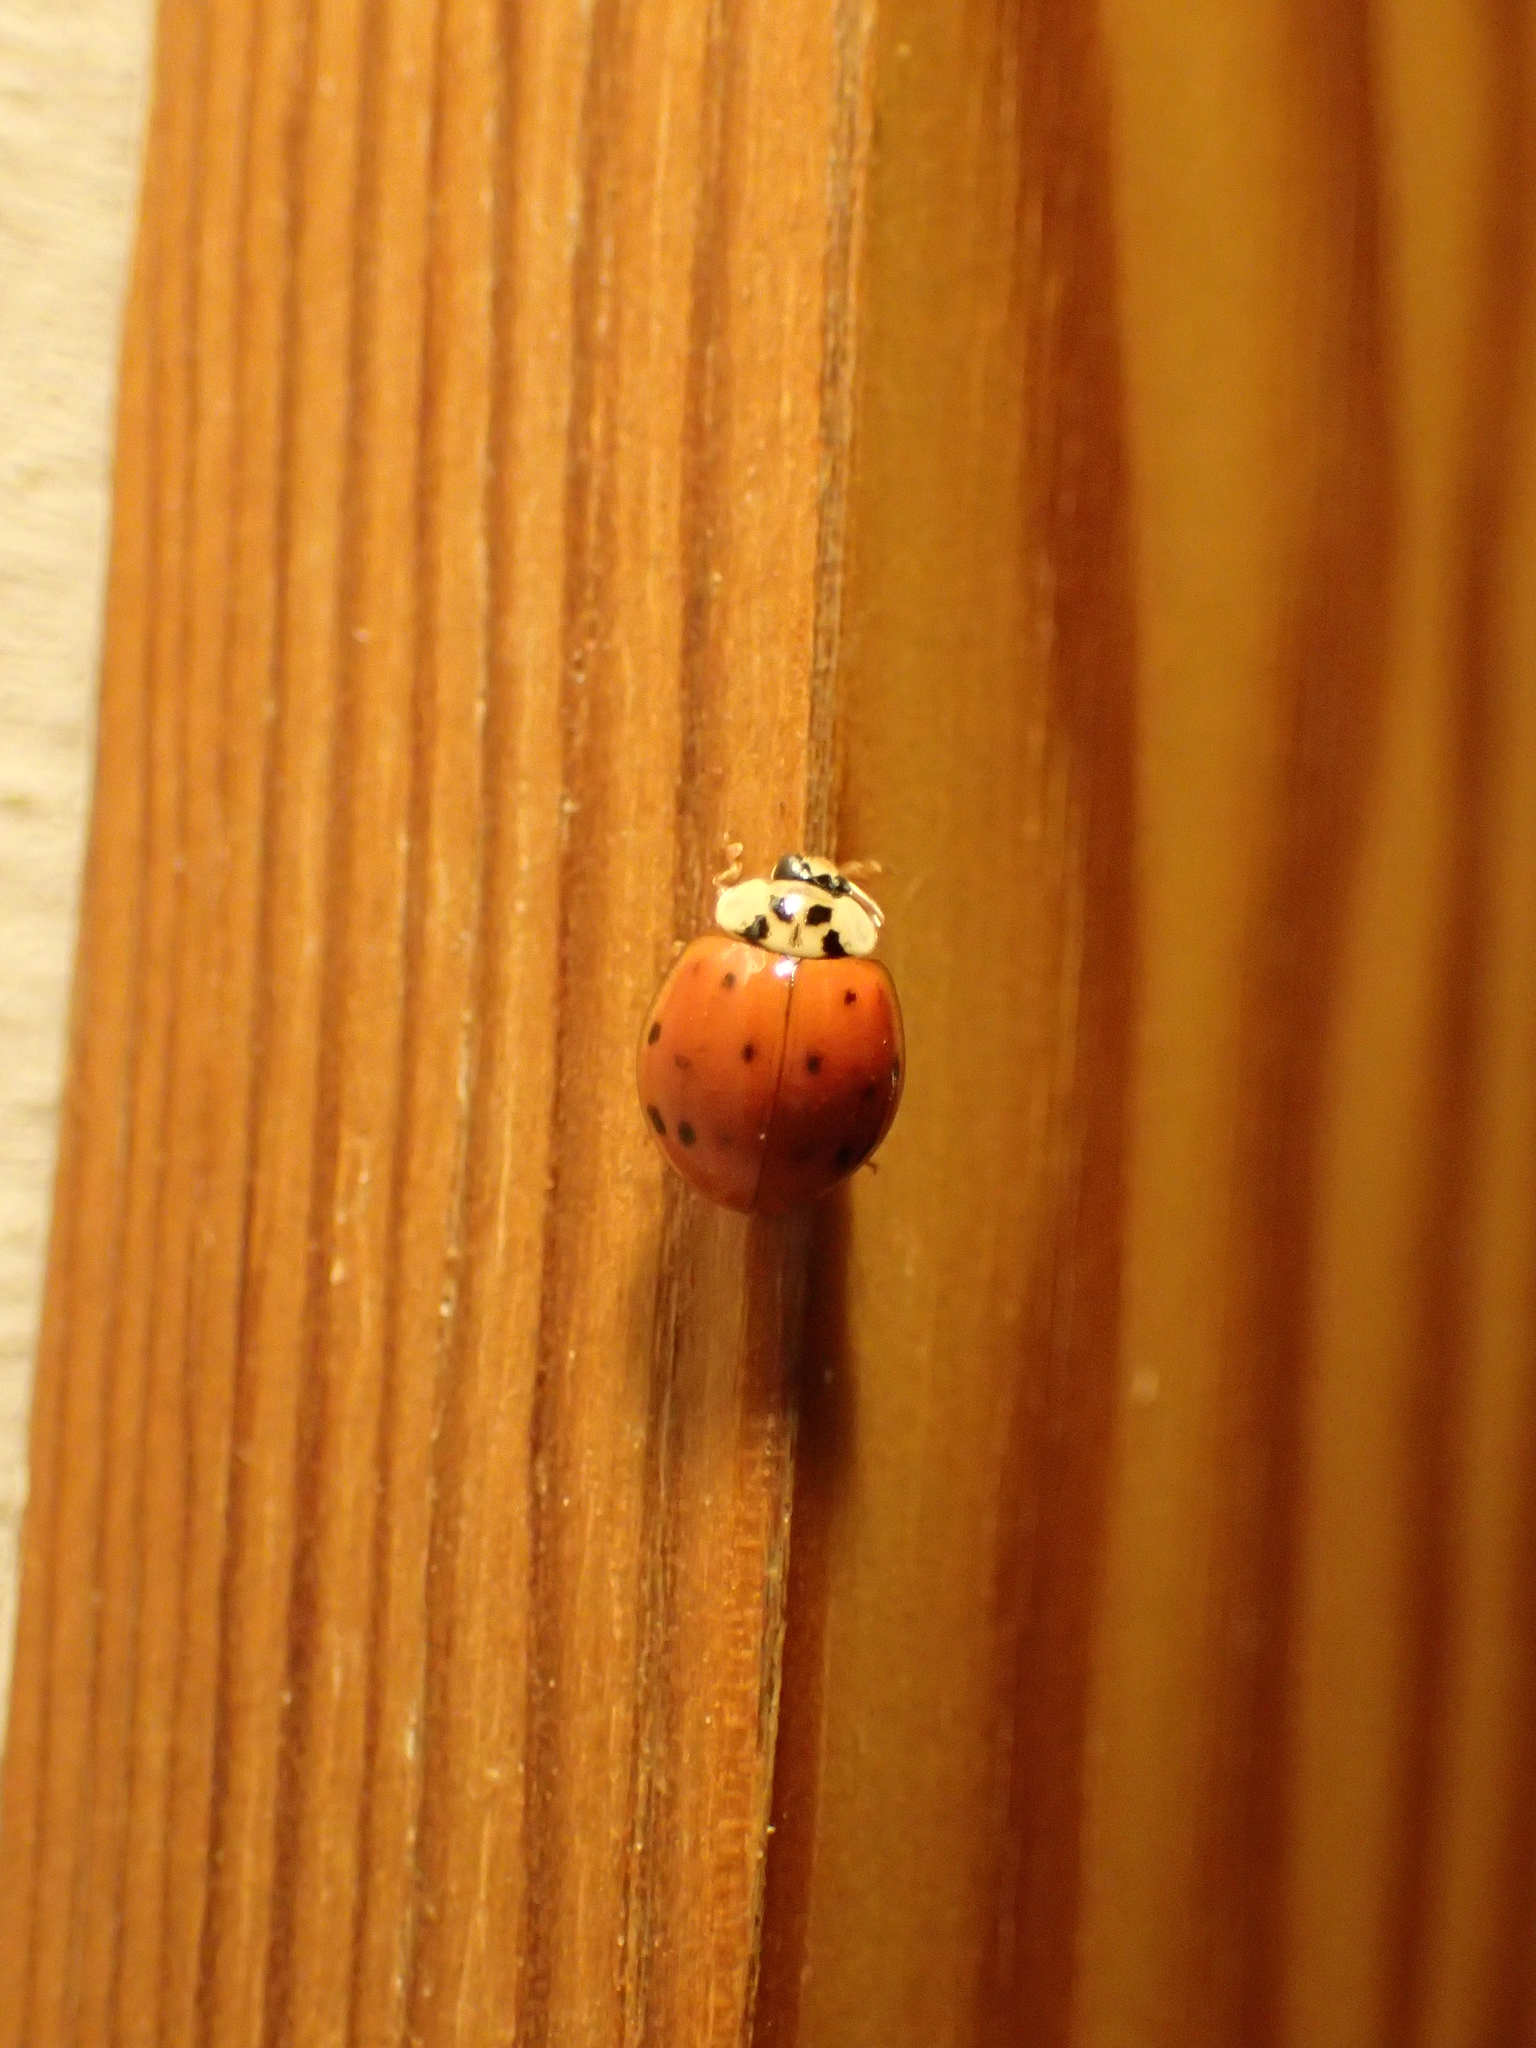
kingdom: Animalia
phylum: Arthropoda
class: Insecta
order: Coleoptera
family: Coccinellidae
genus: Harmonia
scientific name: Harmonia axyridis
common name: Harlequin ladybird
